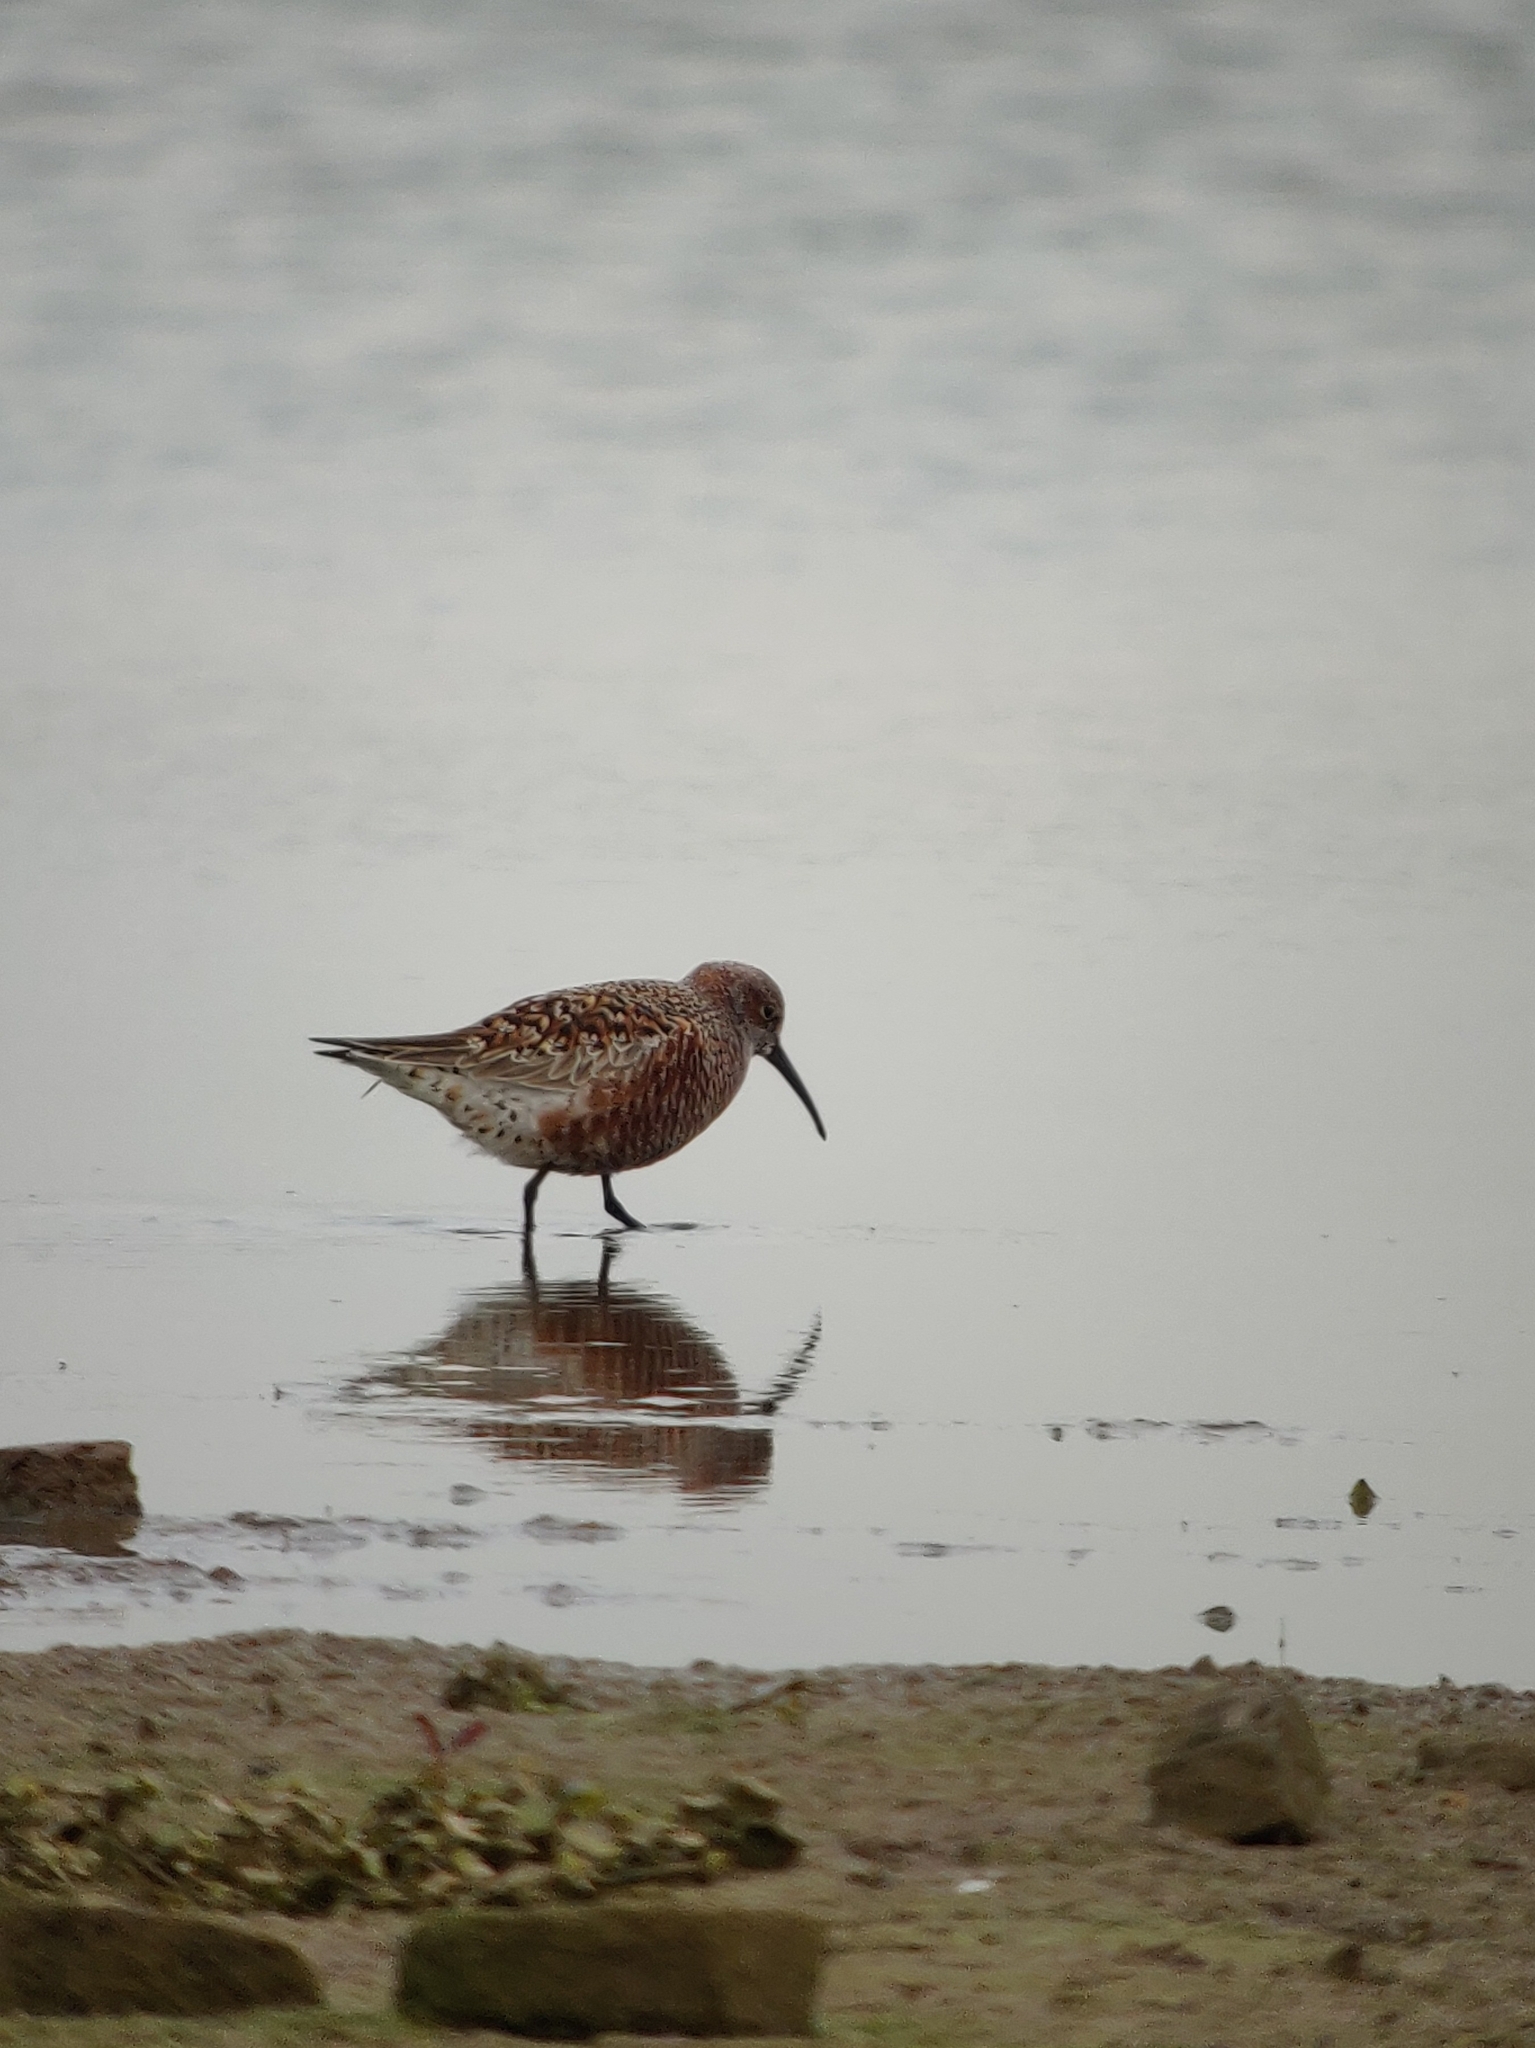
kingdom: Animalia
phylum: Chordata
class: Aves
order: Charadriiformes
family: Scolopacidae
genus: Calidris
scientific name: Calidris ferruginea
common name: Curlew sandpiper
